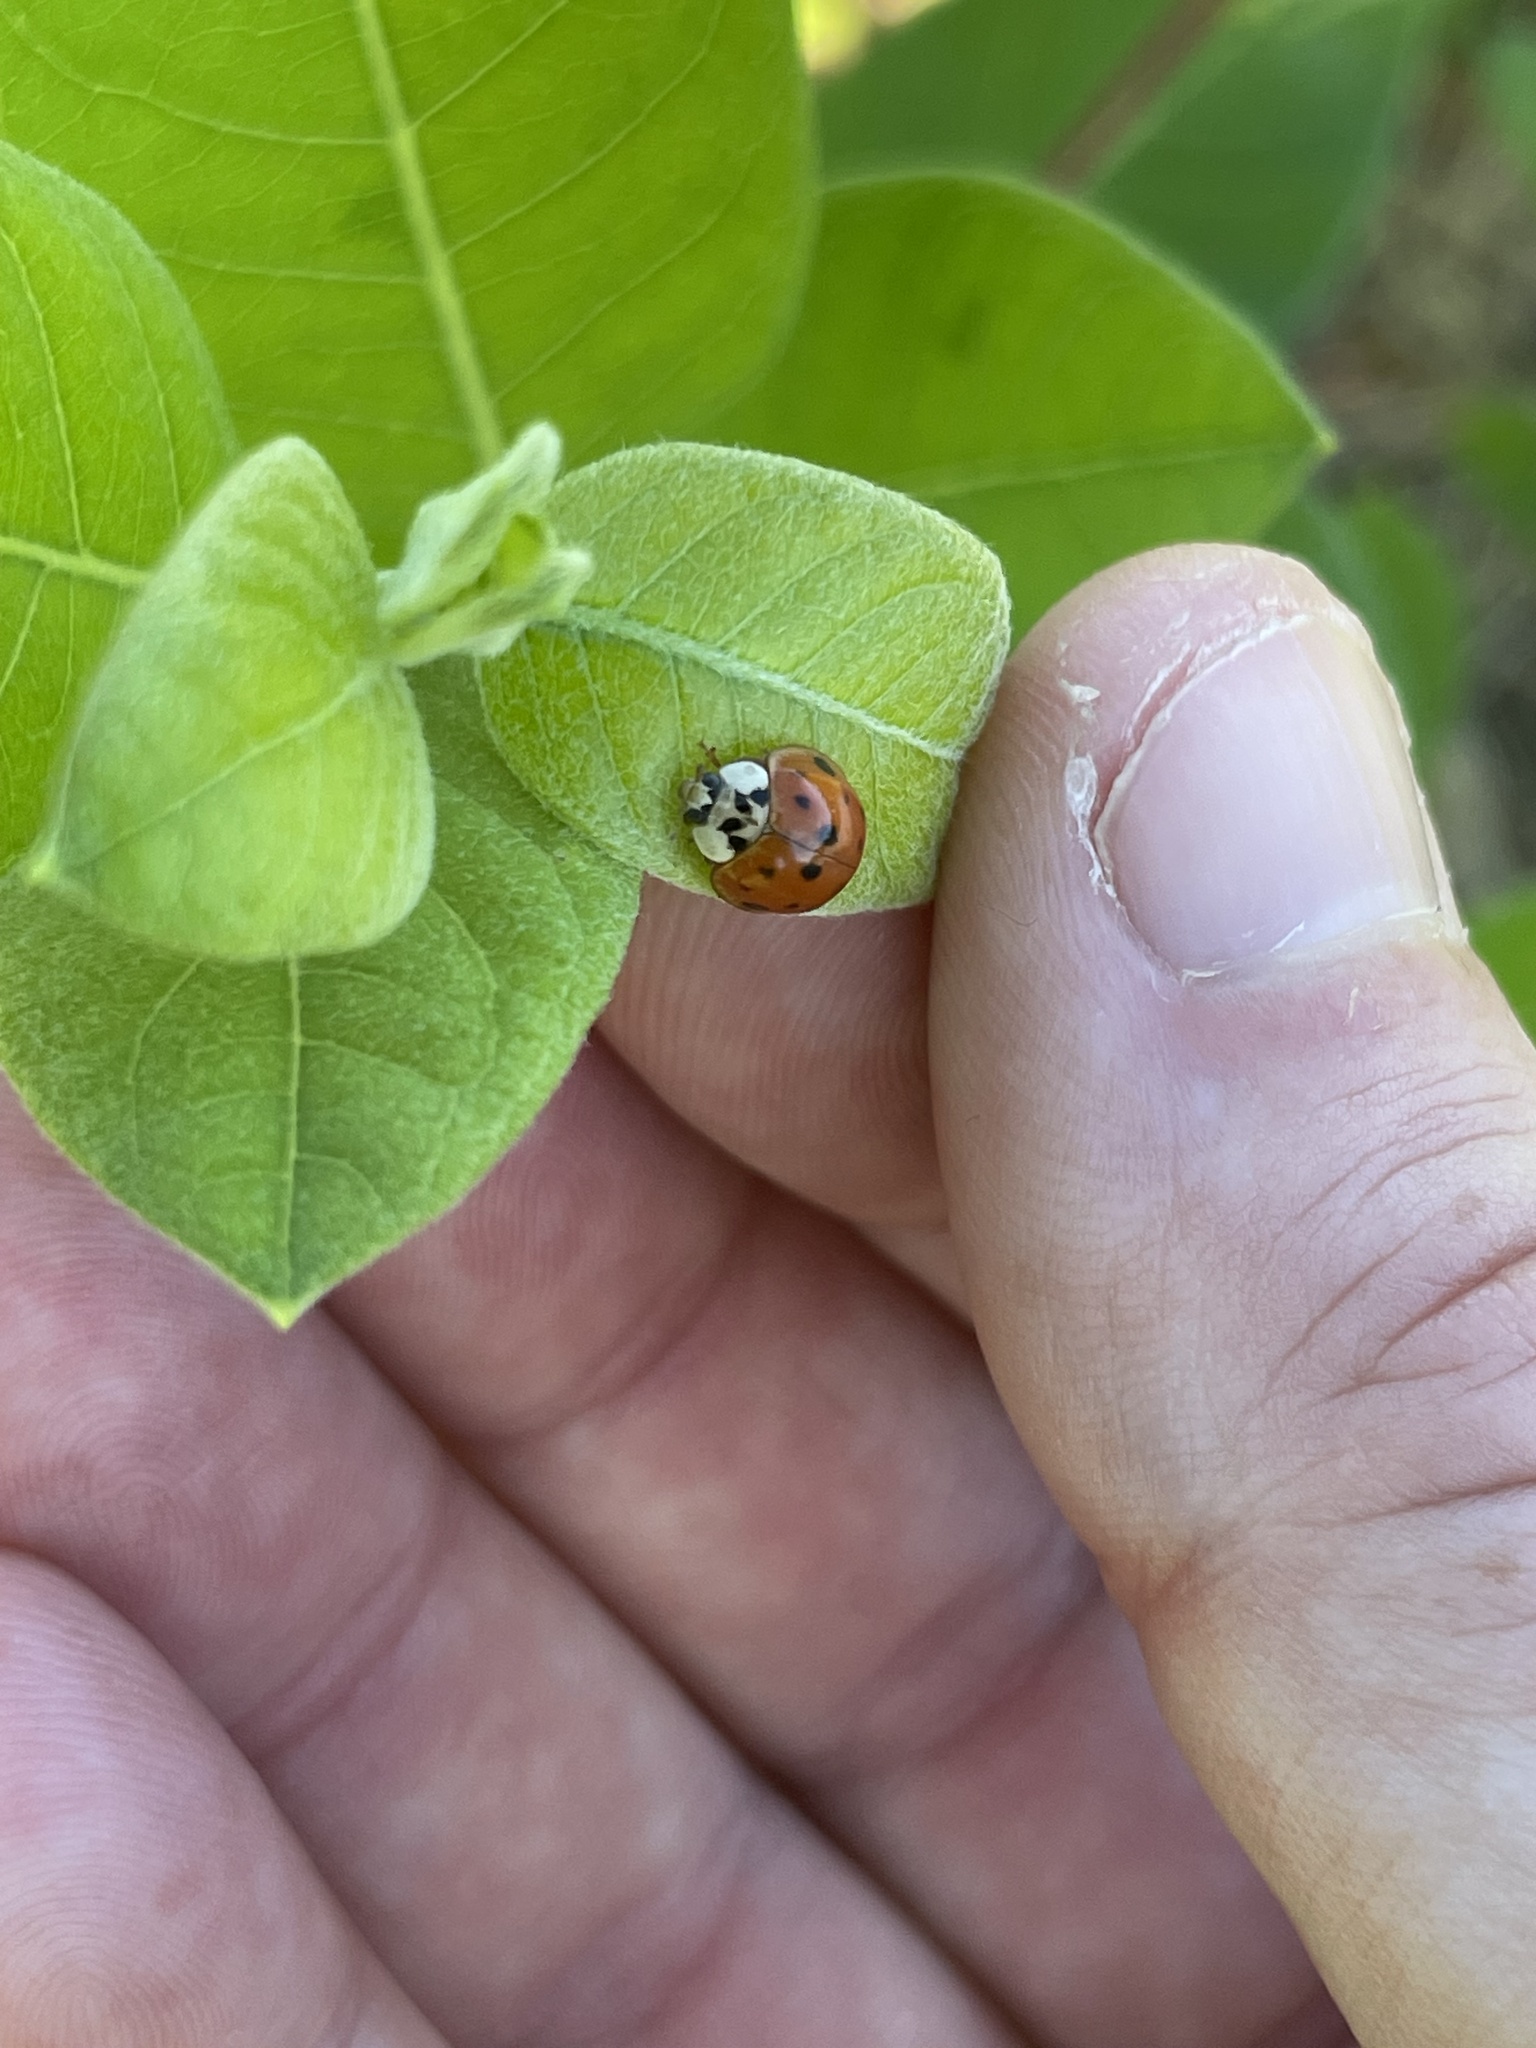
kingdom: Animalia
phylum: Arthropoda
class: Insecta
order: Coleoptera
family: Coccinellidae
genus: Harmonia
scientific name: Harmonia axyridis
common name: Harlequin ladybird
